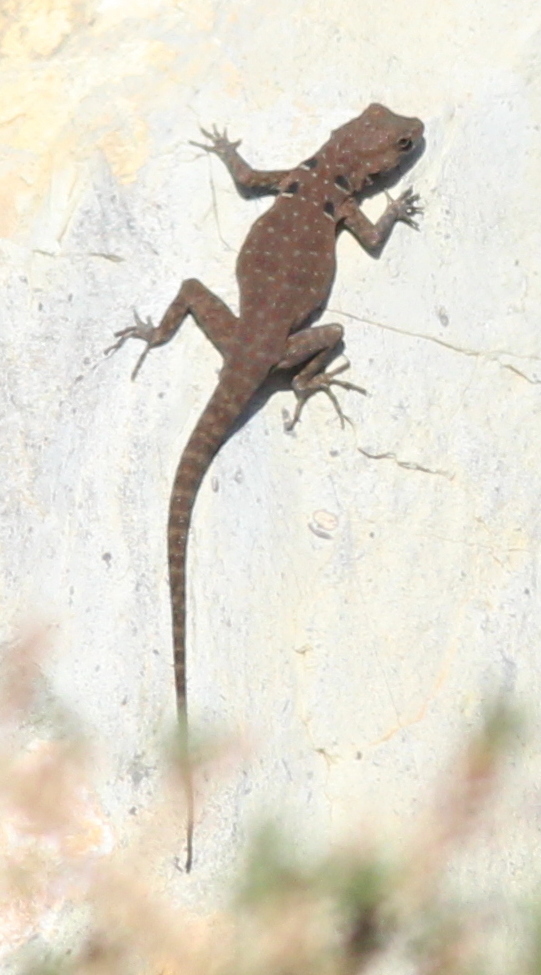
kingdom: Animalia
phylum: Chordata
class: Squamata
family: Sphaerodactylidae
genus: Quedenfeldtia
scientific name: Quedenfeldtia moerens
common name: Atlas day gecko
